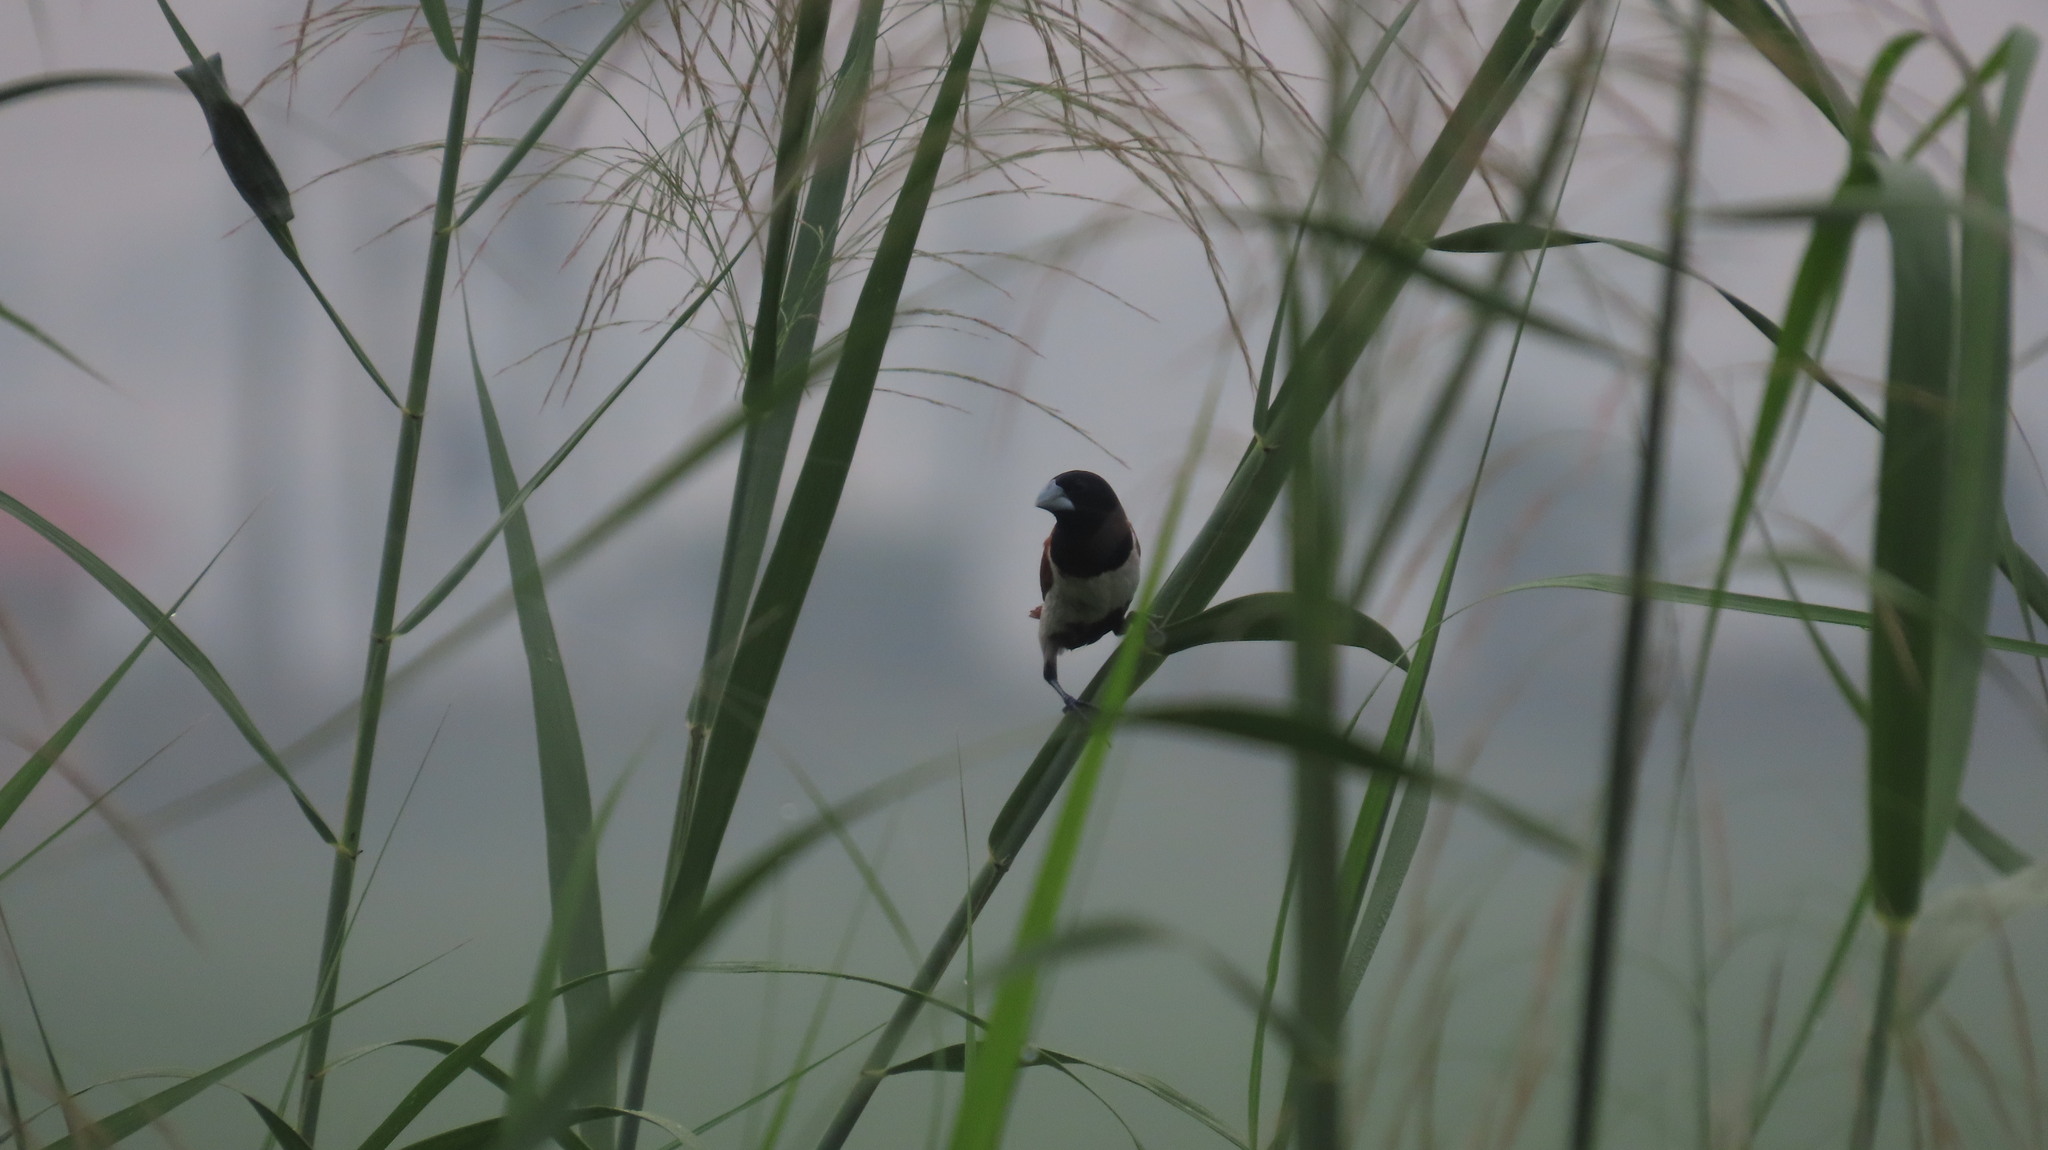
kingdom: Animalia
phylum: Chordata
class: Aves
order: Passeriformes
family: Estrildidae
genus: Lonchura
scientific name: Lonchura malacca
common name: Tricolored munia
